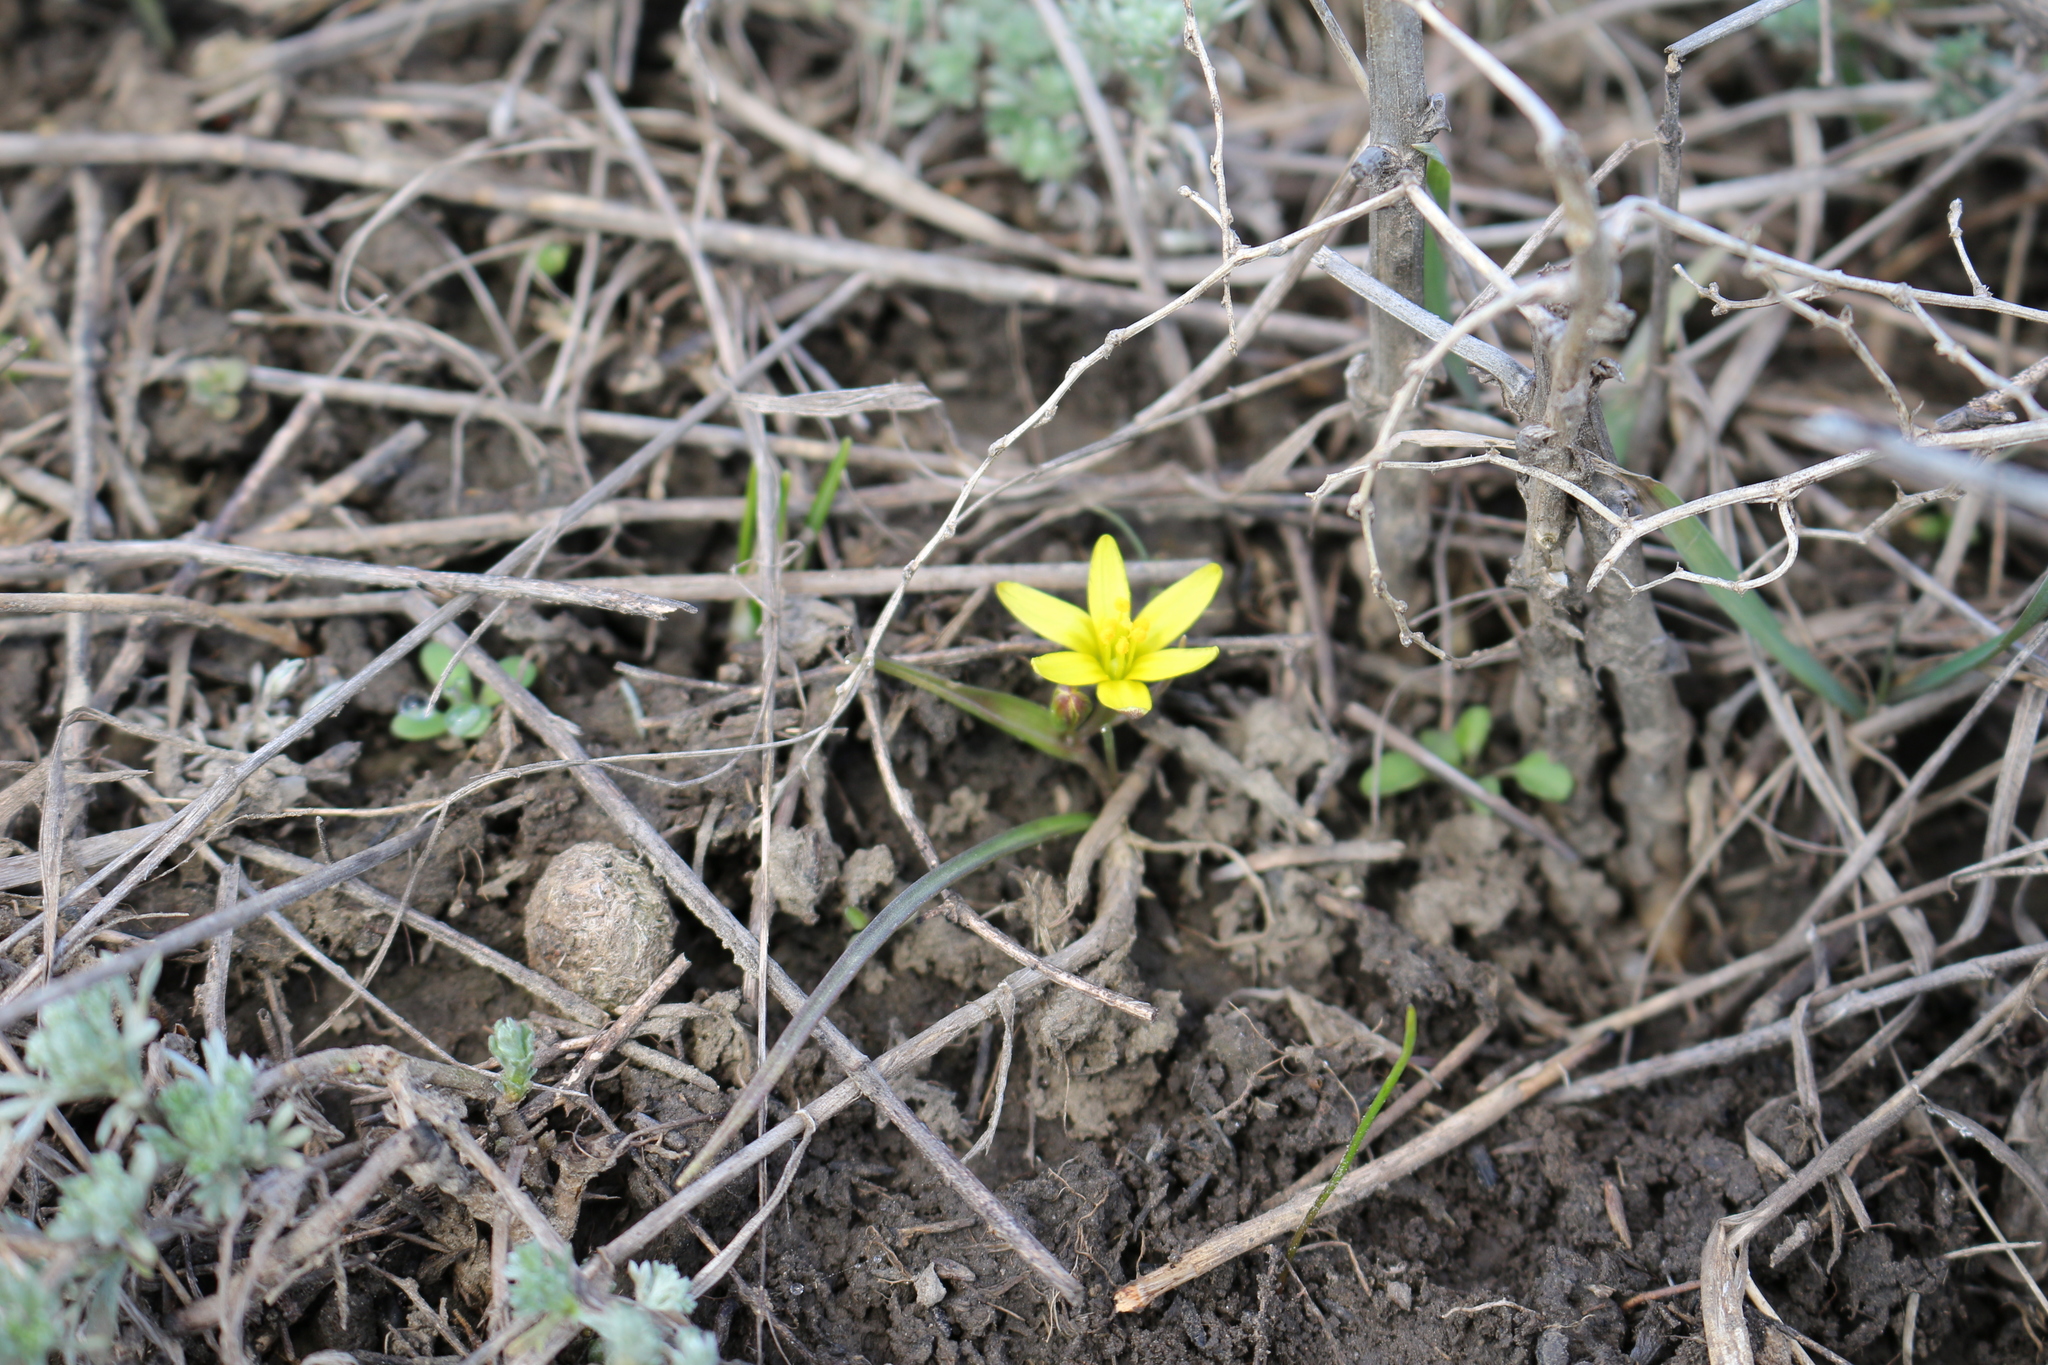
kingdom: Plantae
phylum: Tracheophyta
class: Liliopsida
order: Liliales
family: Liliaceae
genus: Gagea
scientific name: Gagea pusilla
